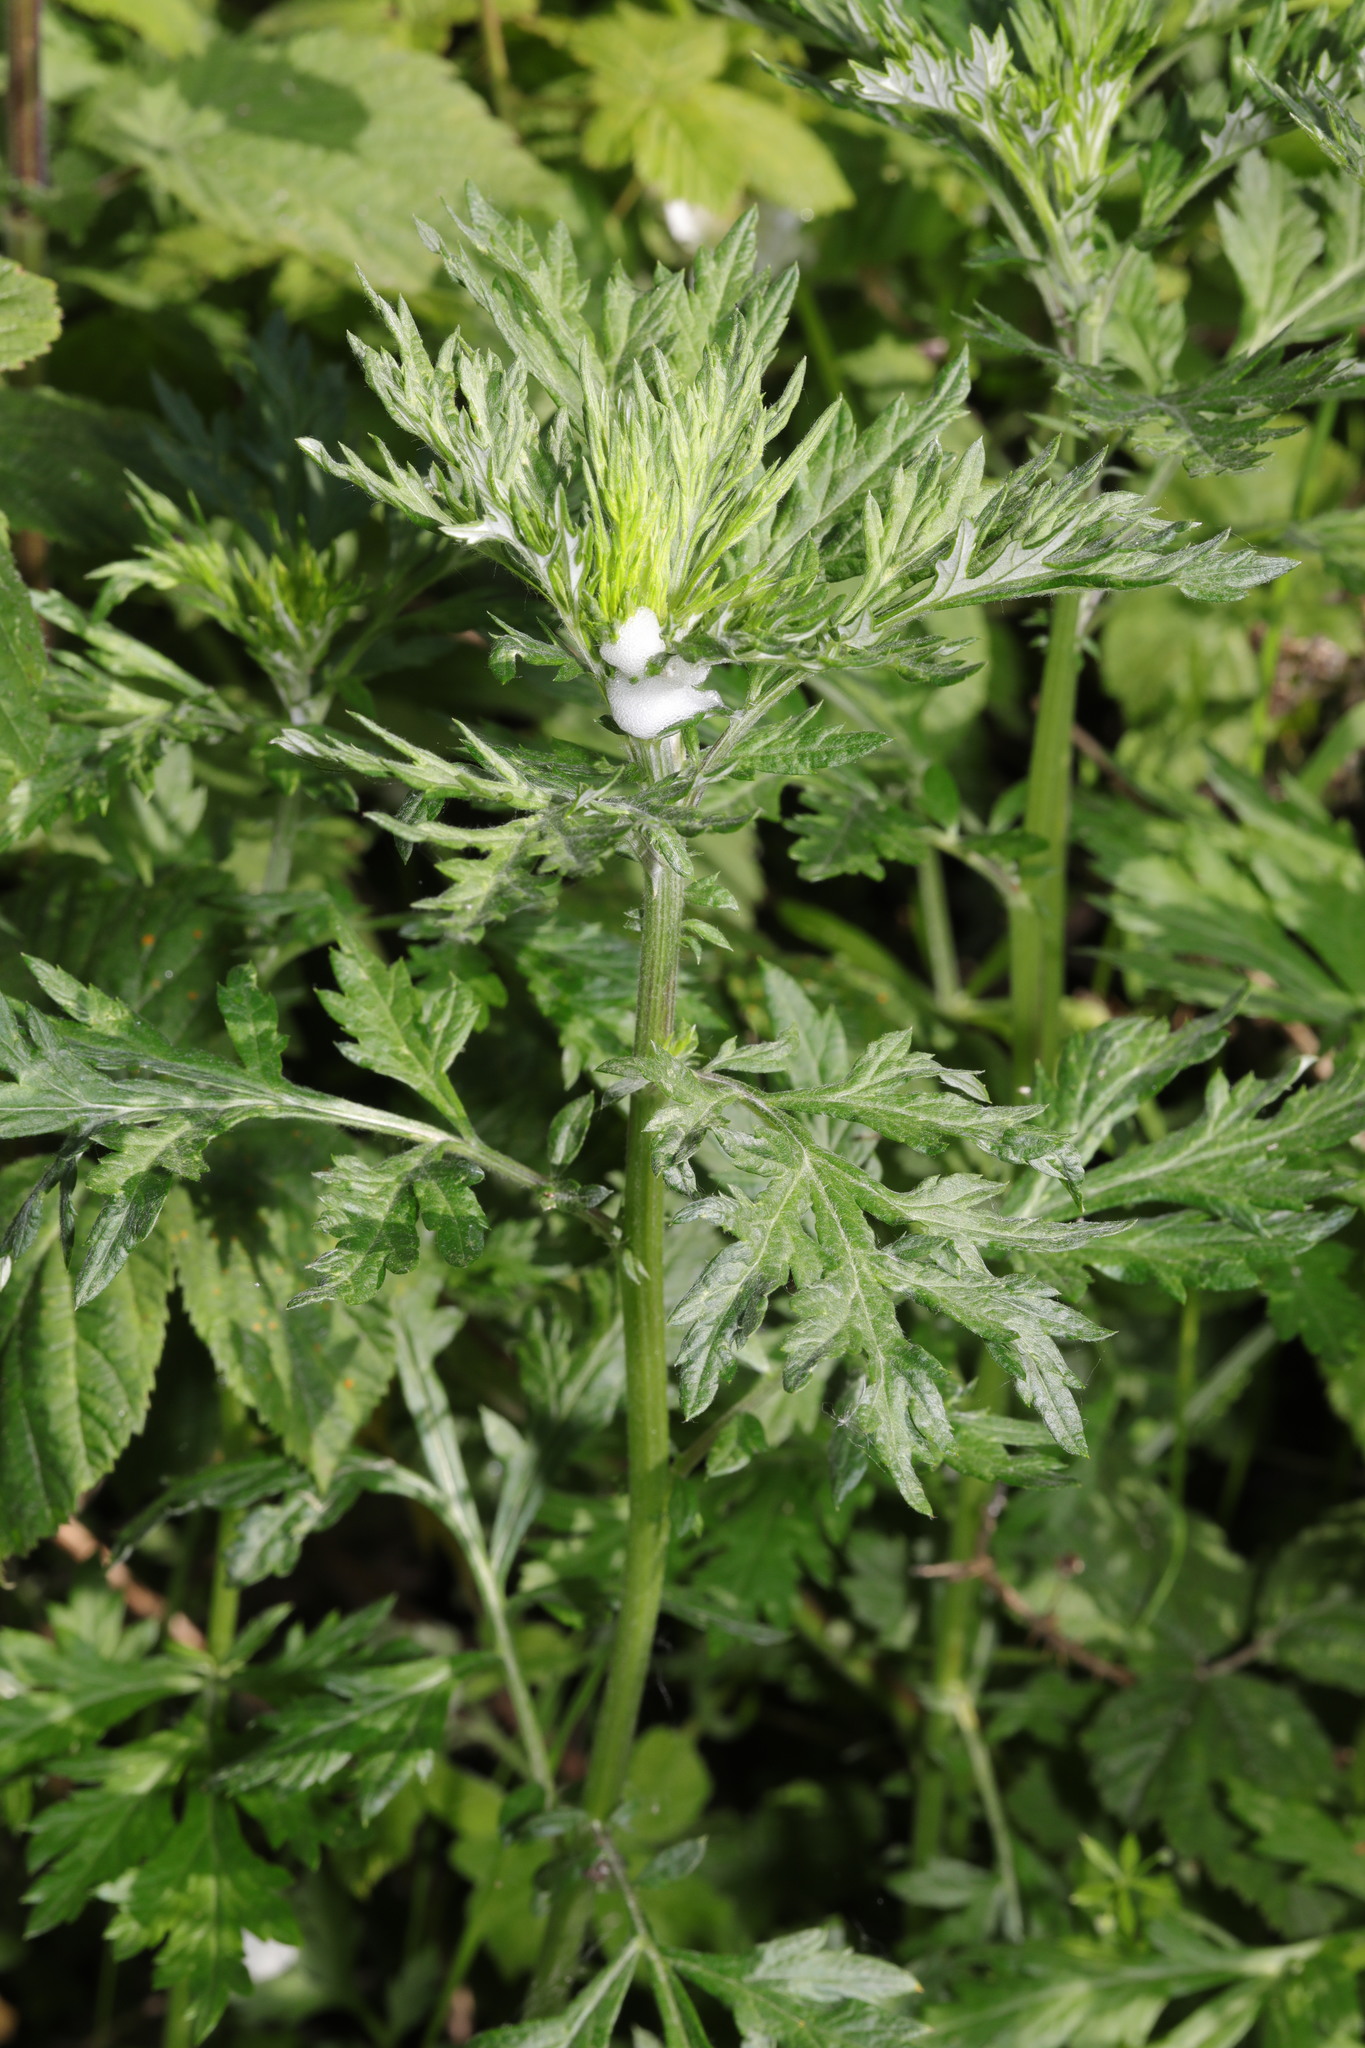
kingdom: Plantae
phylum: Tracheophyta
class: Magnoliopsida
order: Asterales
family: Asteraceae
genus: Artemisia
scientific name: Artemisia vulgaris
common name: Mugwort
